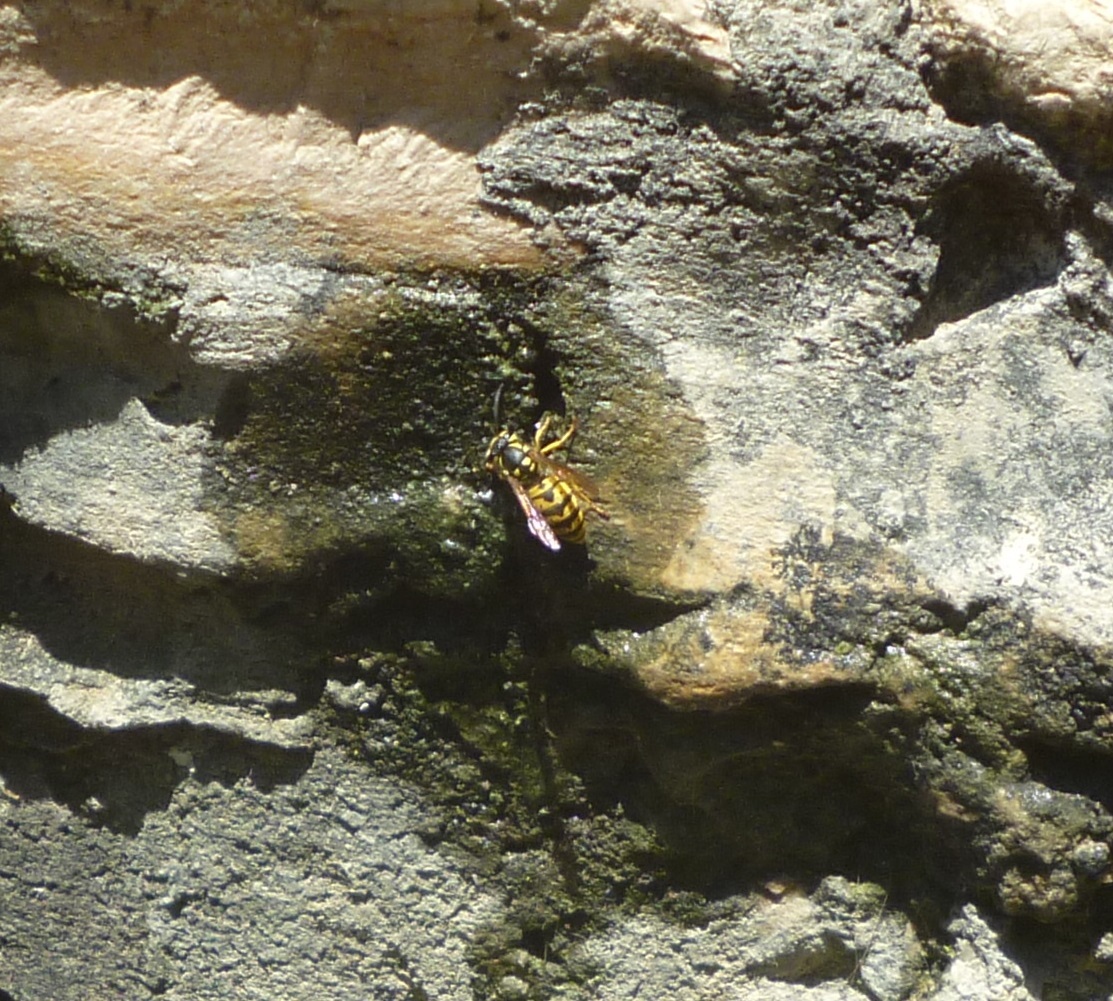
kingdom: Animalia
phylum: Arthropoda
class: Insecta
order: Hymenoptera
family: Vespidae
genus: Vespula
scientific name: Vespula germanica
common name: German wasp
